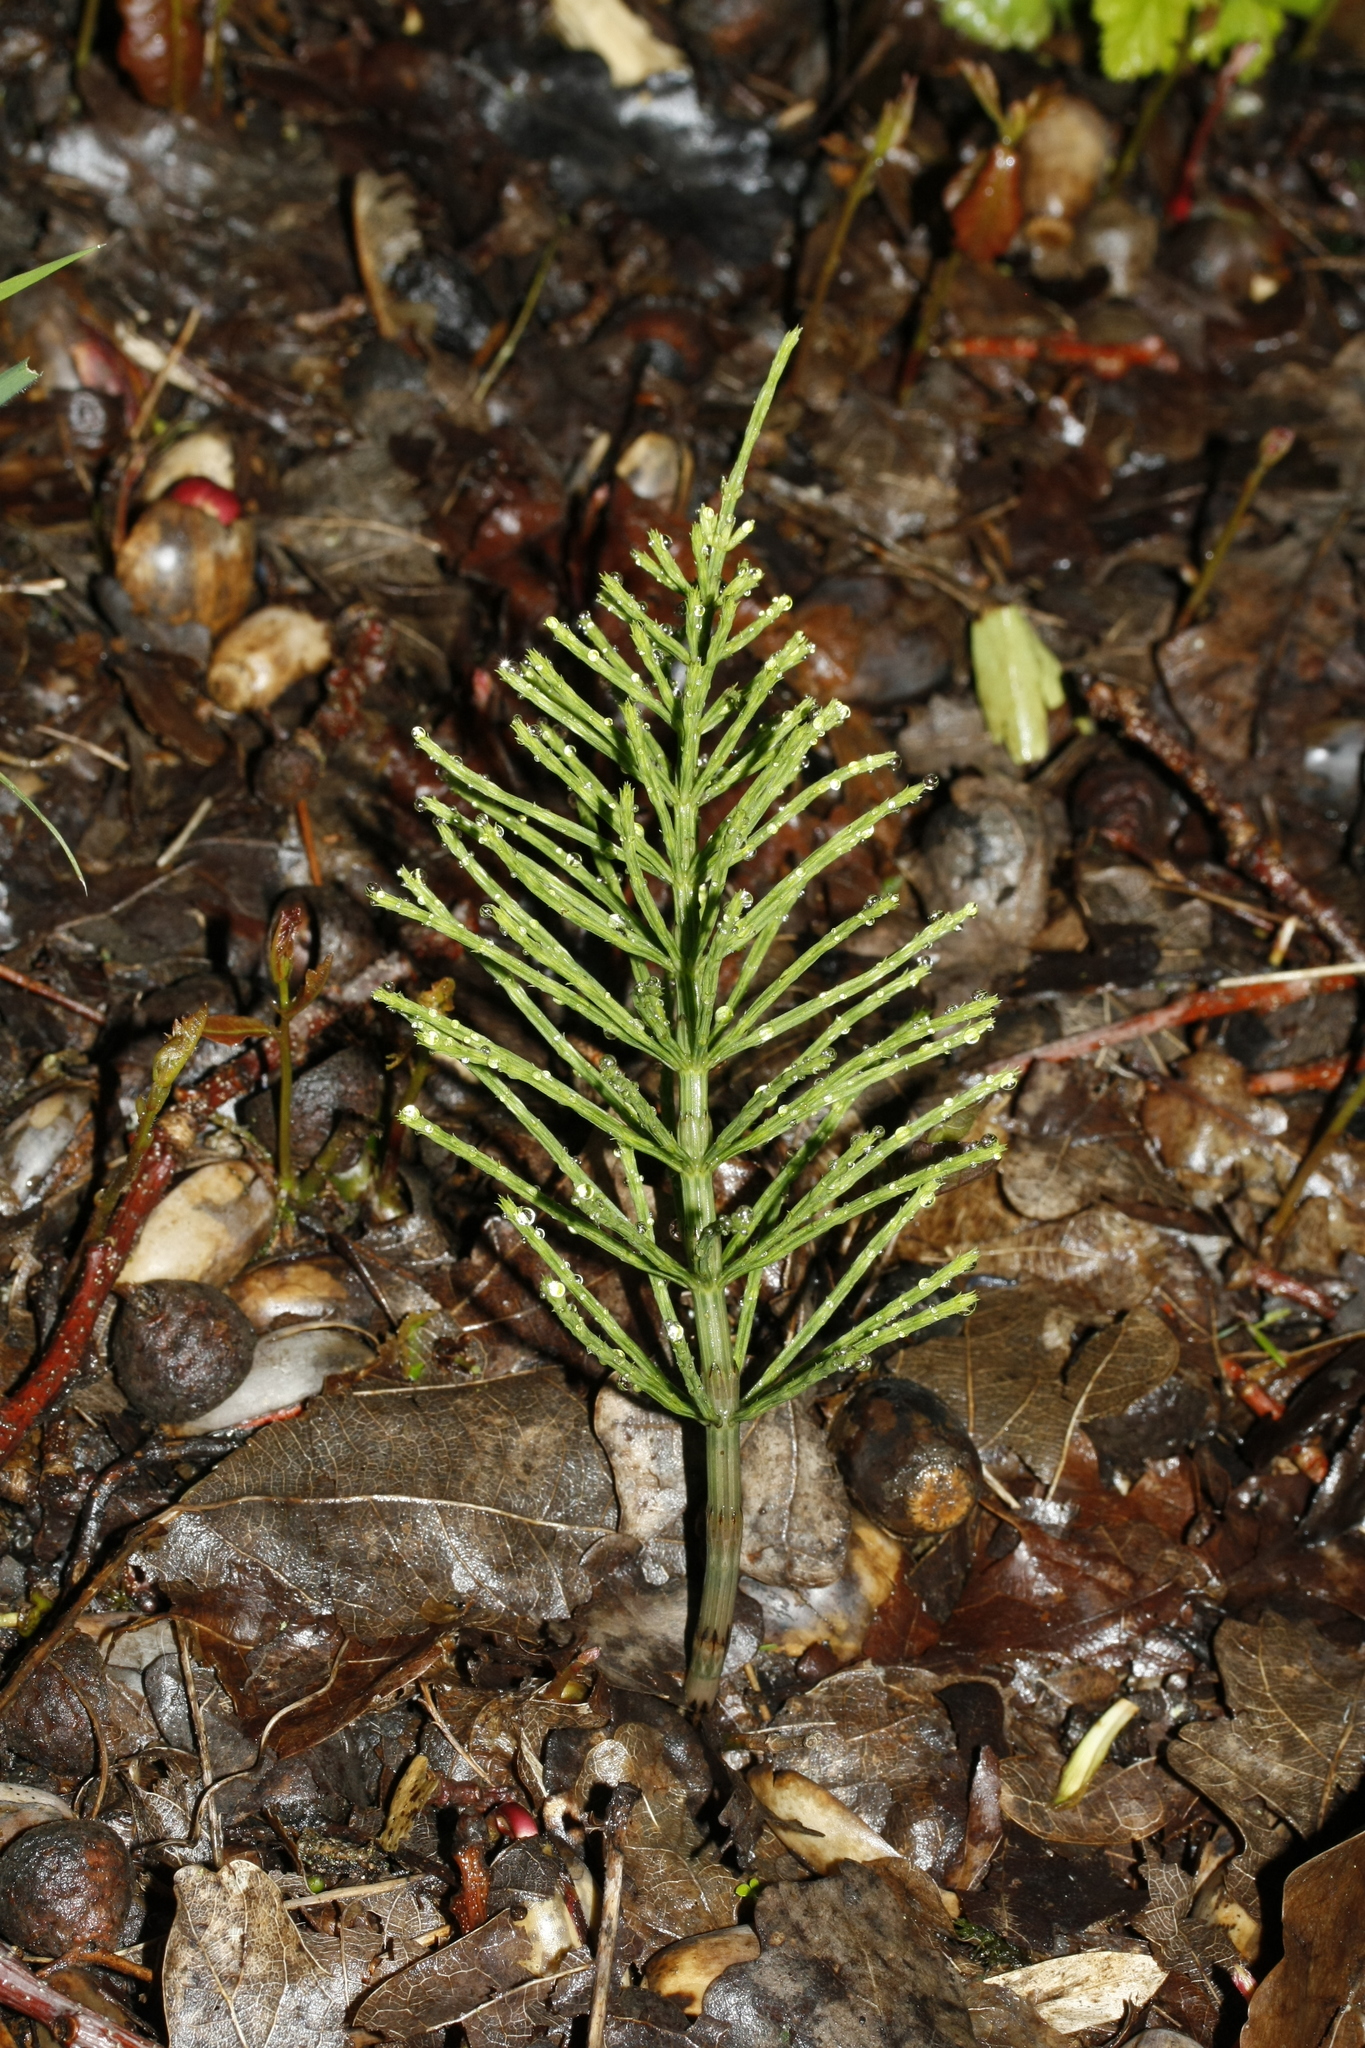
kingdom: Plantae
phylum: Tracheophyta
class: Polypodiopsida
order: Equisetales
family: Equisetaceae
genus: Equisetum
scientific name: Equisetum arvense
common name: Field horsetail
